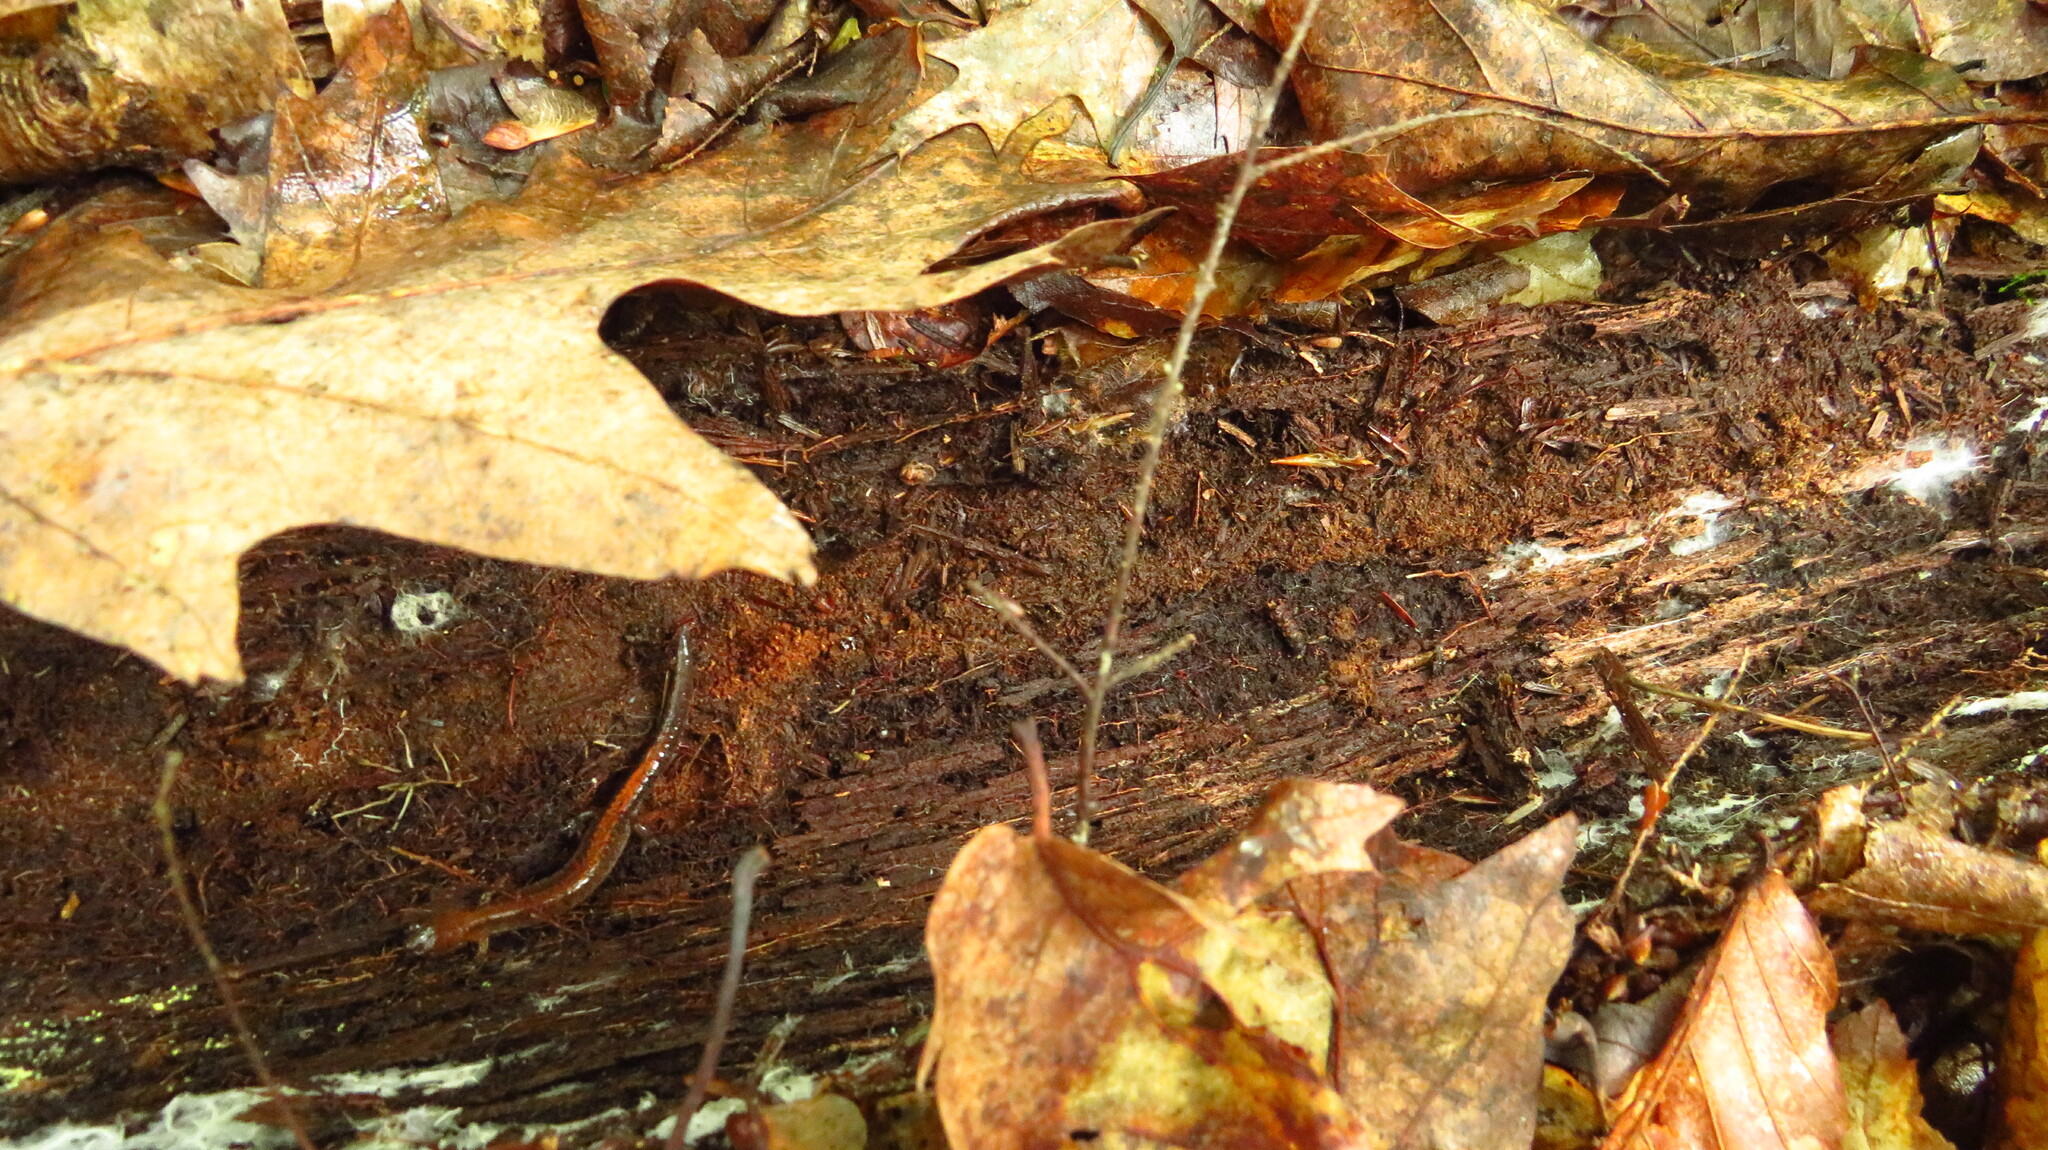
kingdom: Animalia
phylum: Chordata
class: Amphibia
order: Caudata
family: Plethodontidae
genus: Plethodon
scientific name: Plethodon cinereus
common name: Redback salamander
